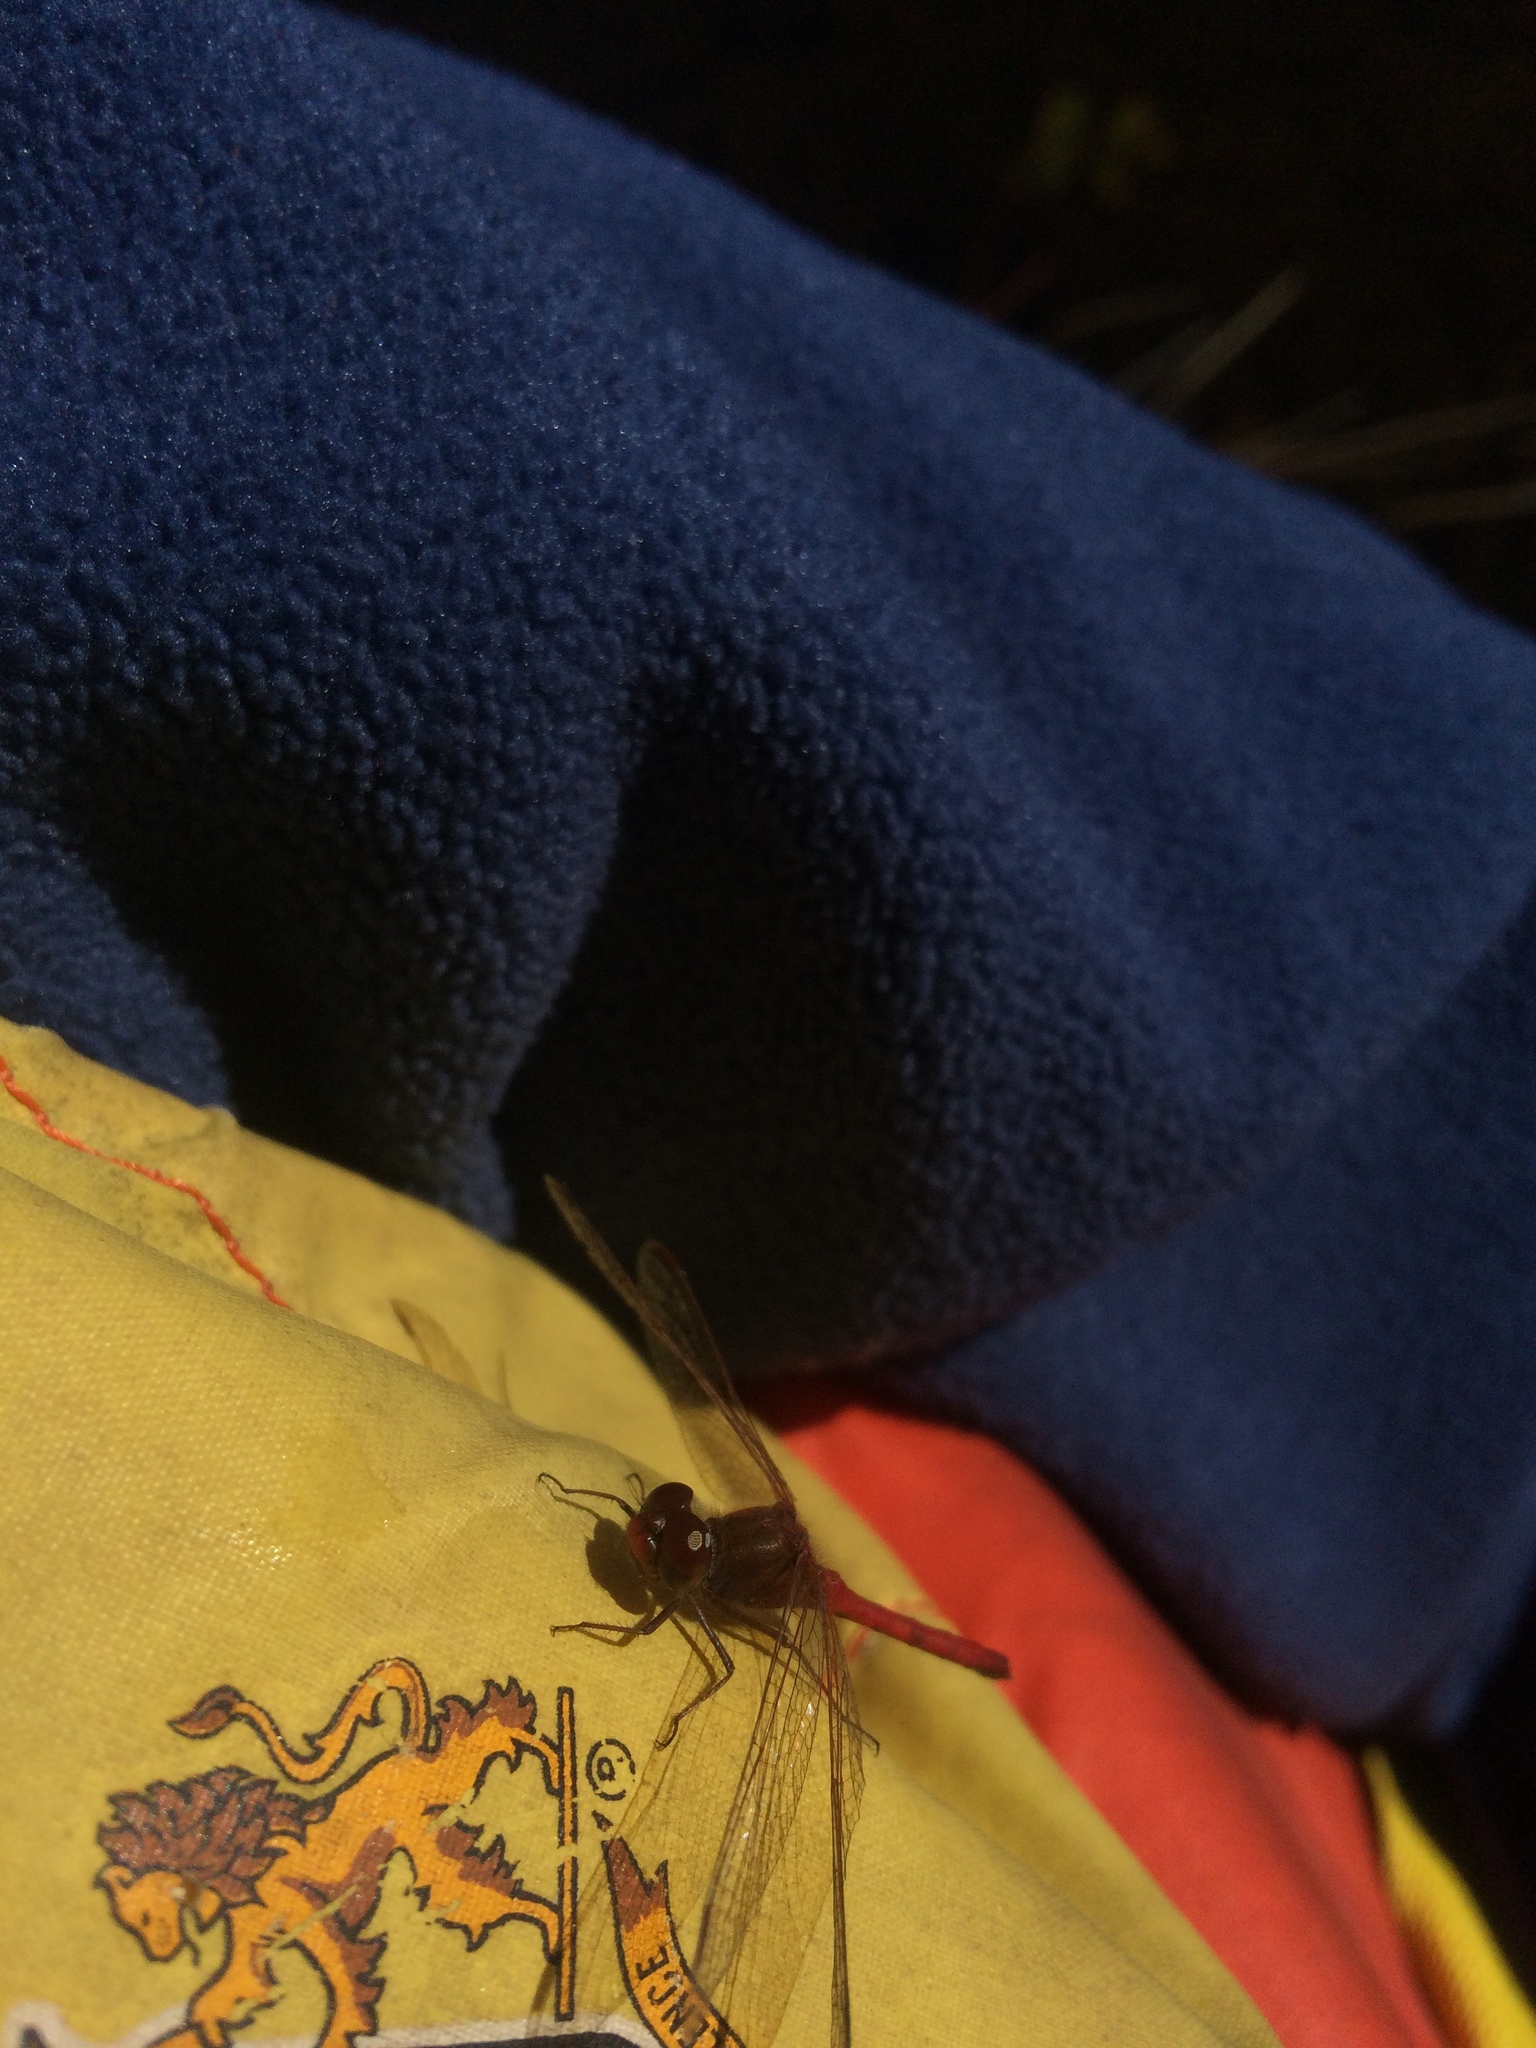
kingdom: Animalia
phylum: Arthropoda
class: Insecta
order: Odonata
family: Libellulidae
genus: Sympetrum
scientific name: Sympetrum vicinum
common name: Autumn meadowhawk
